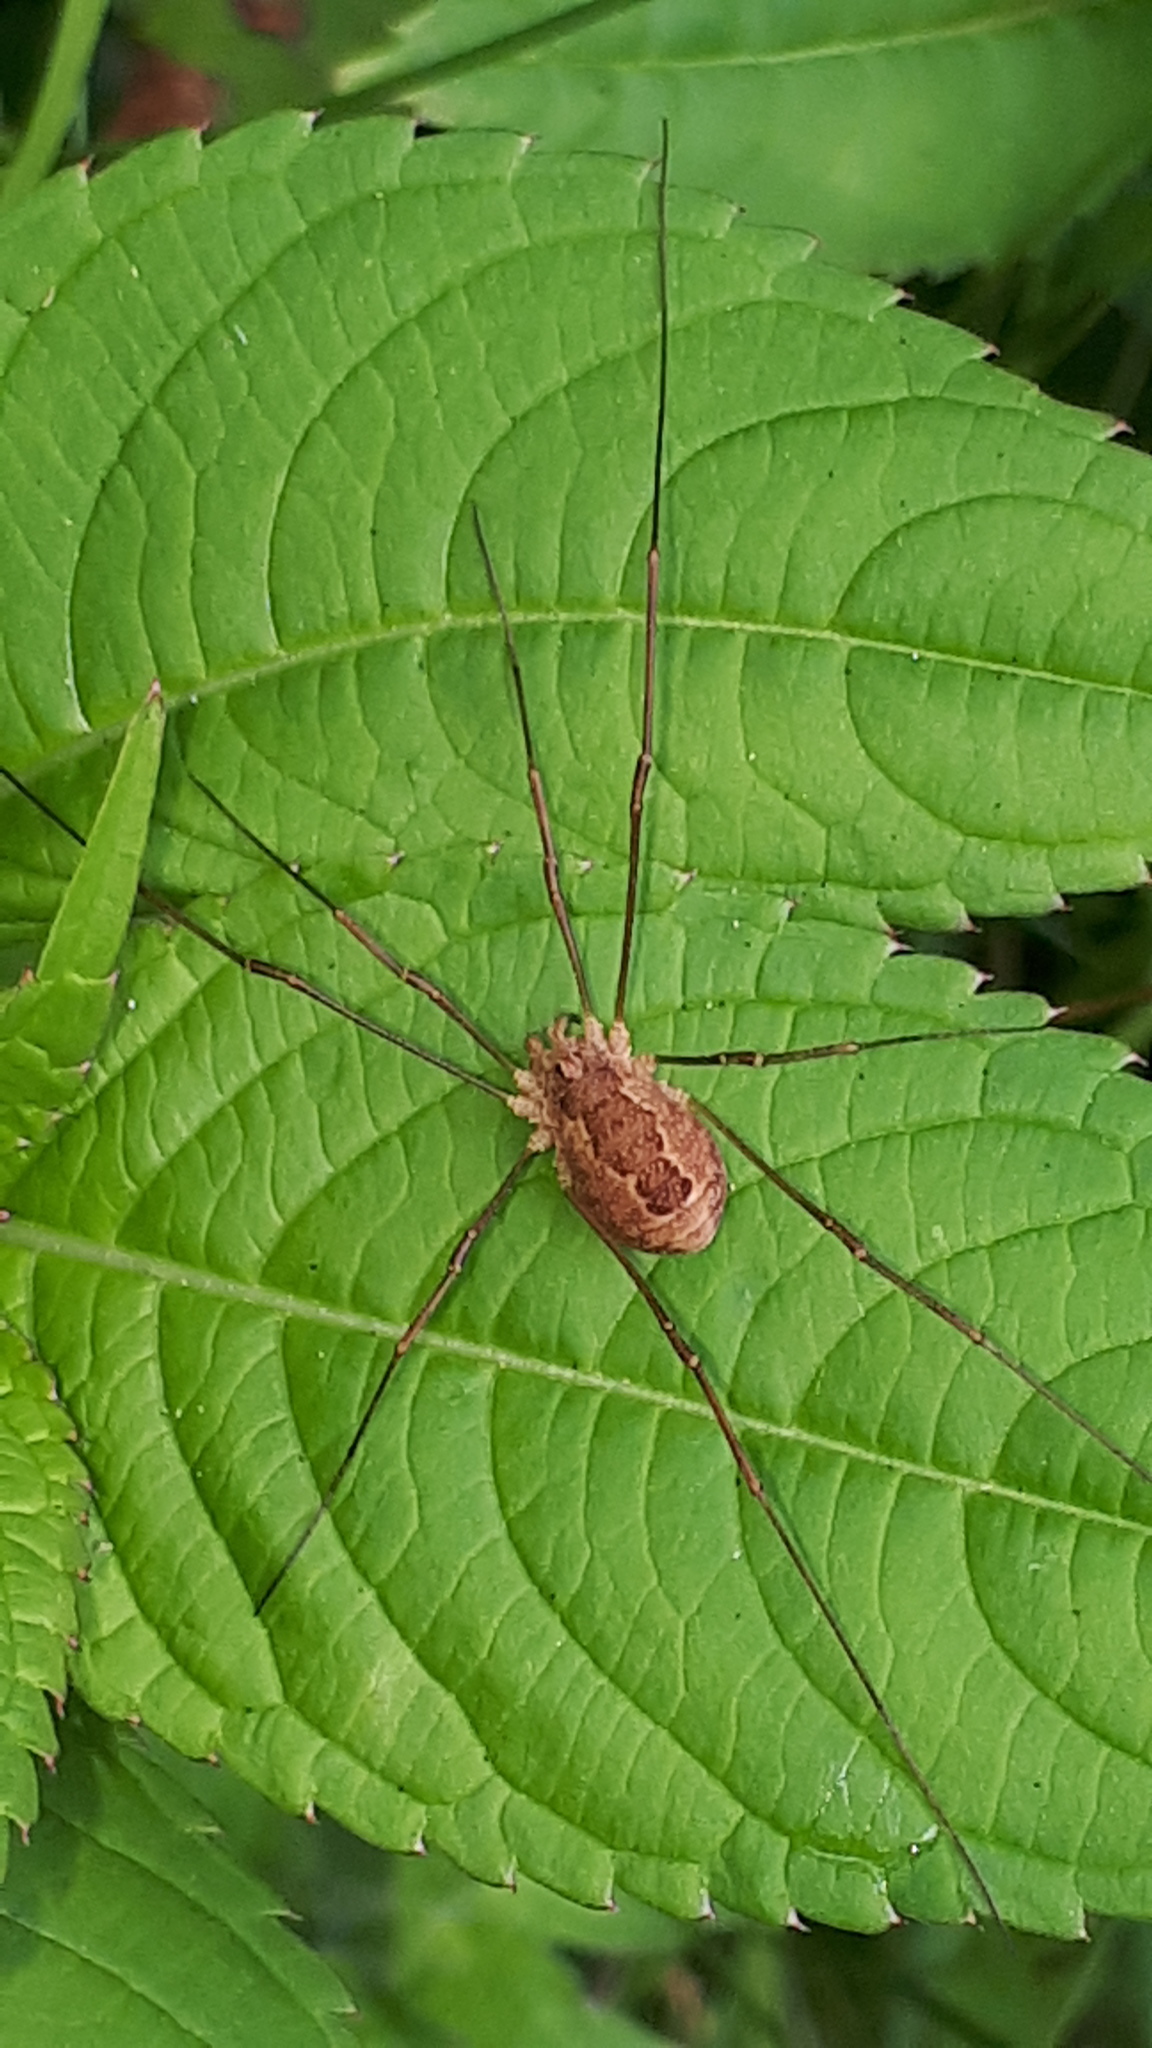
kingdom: Animalia
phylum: Arthropoda
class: Arachnida
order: Opiliones
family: Phalangiidae
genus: Rilaena
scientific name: Rilaena triangularis
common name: Spring harvestman
